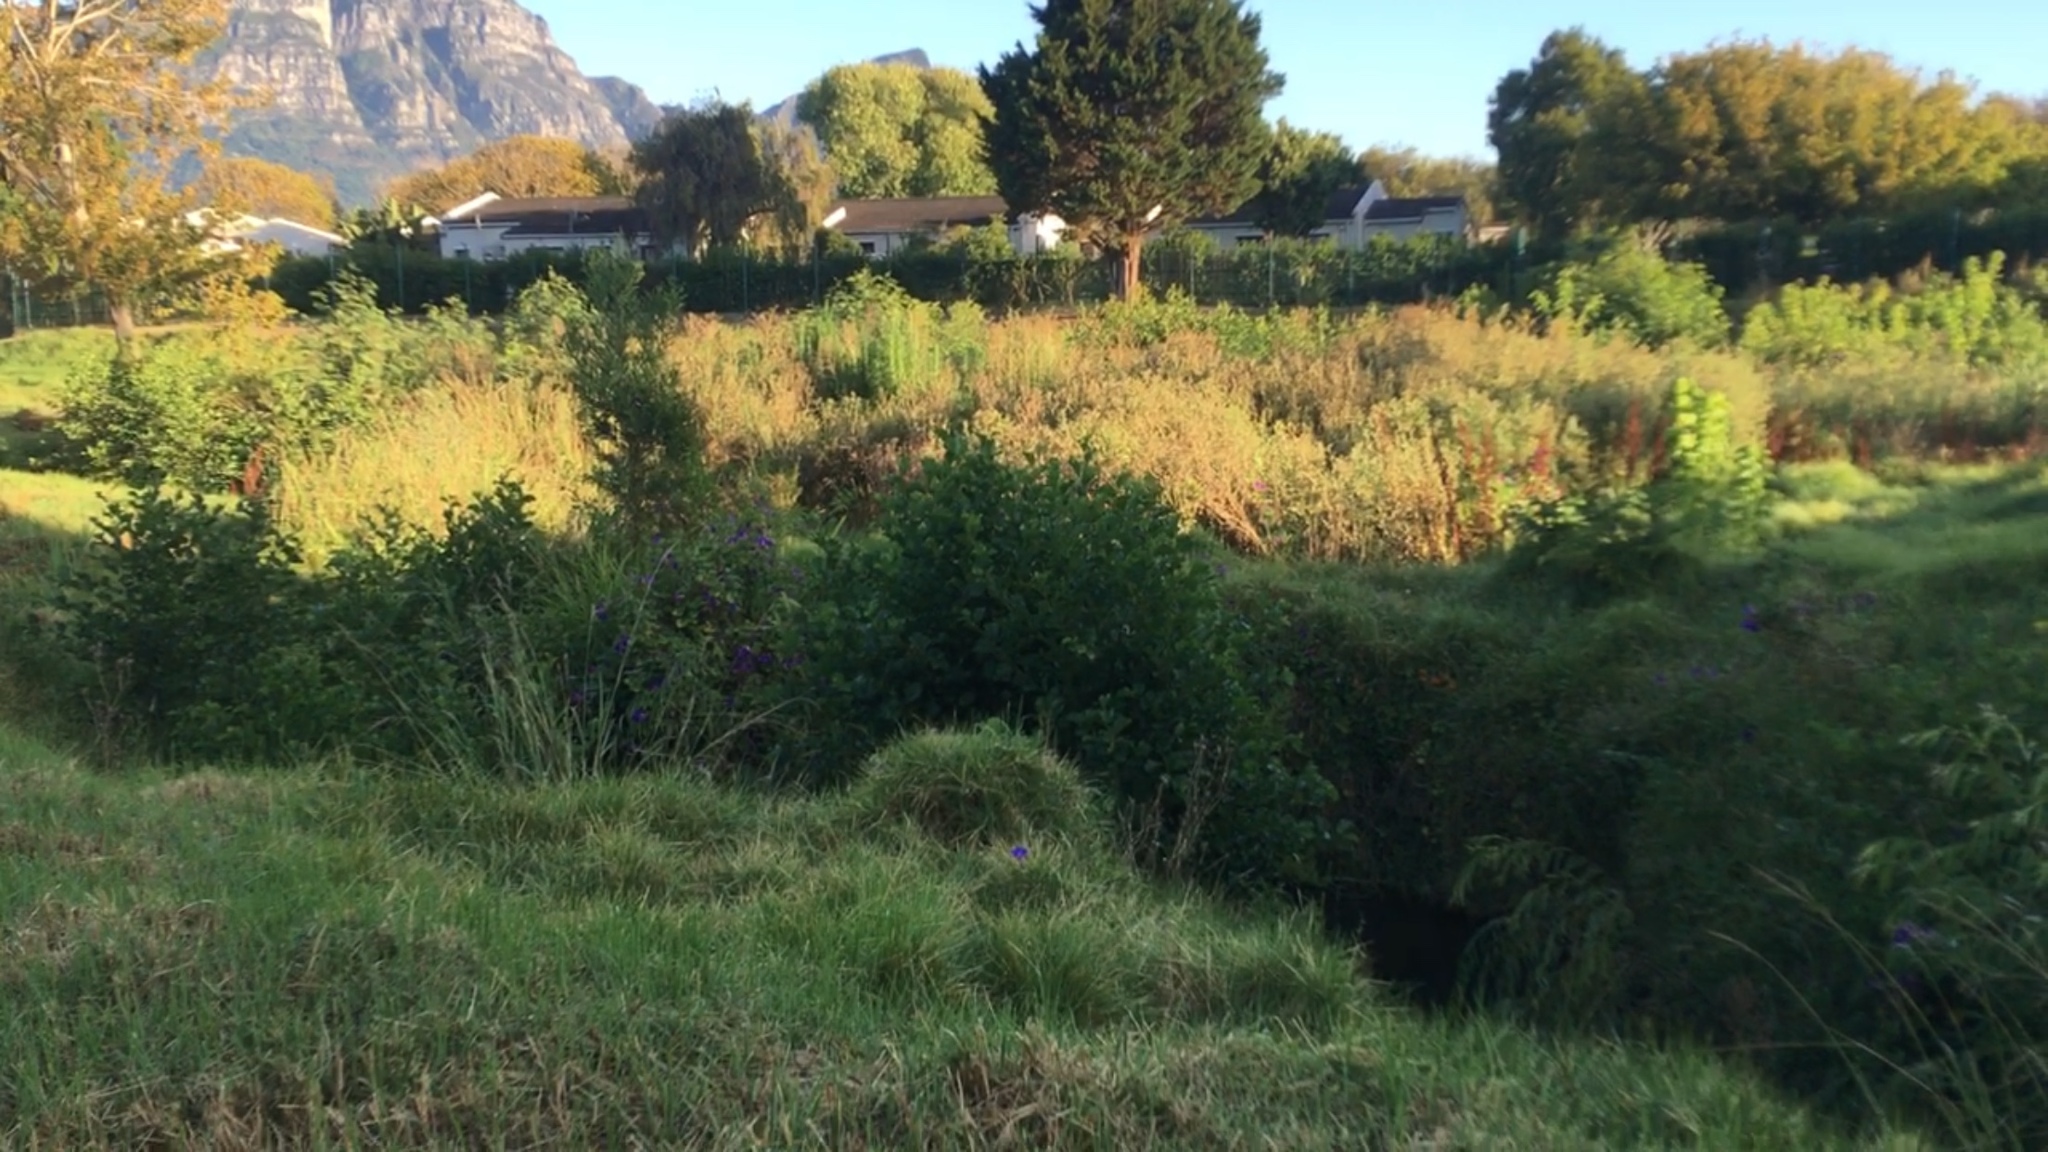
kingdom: Plantae
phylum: Tracheophyta
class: Magnoliopsida
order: Fabales
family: Fabaceae
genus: Acacia
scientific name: Acacia melanoxylon
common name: Blackwood
